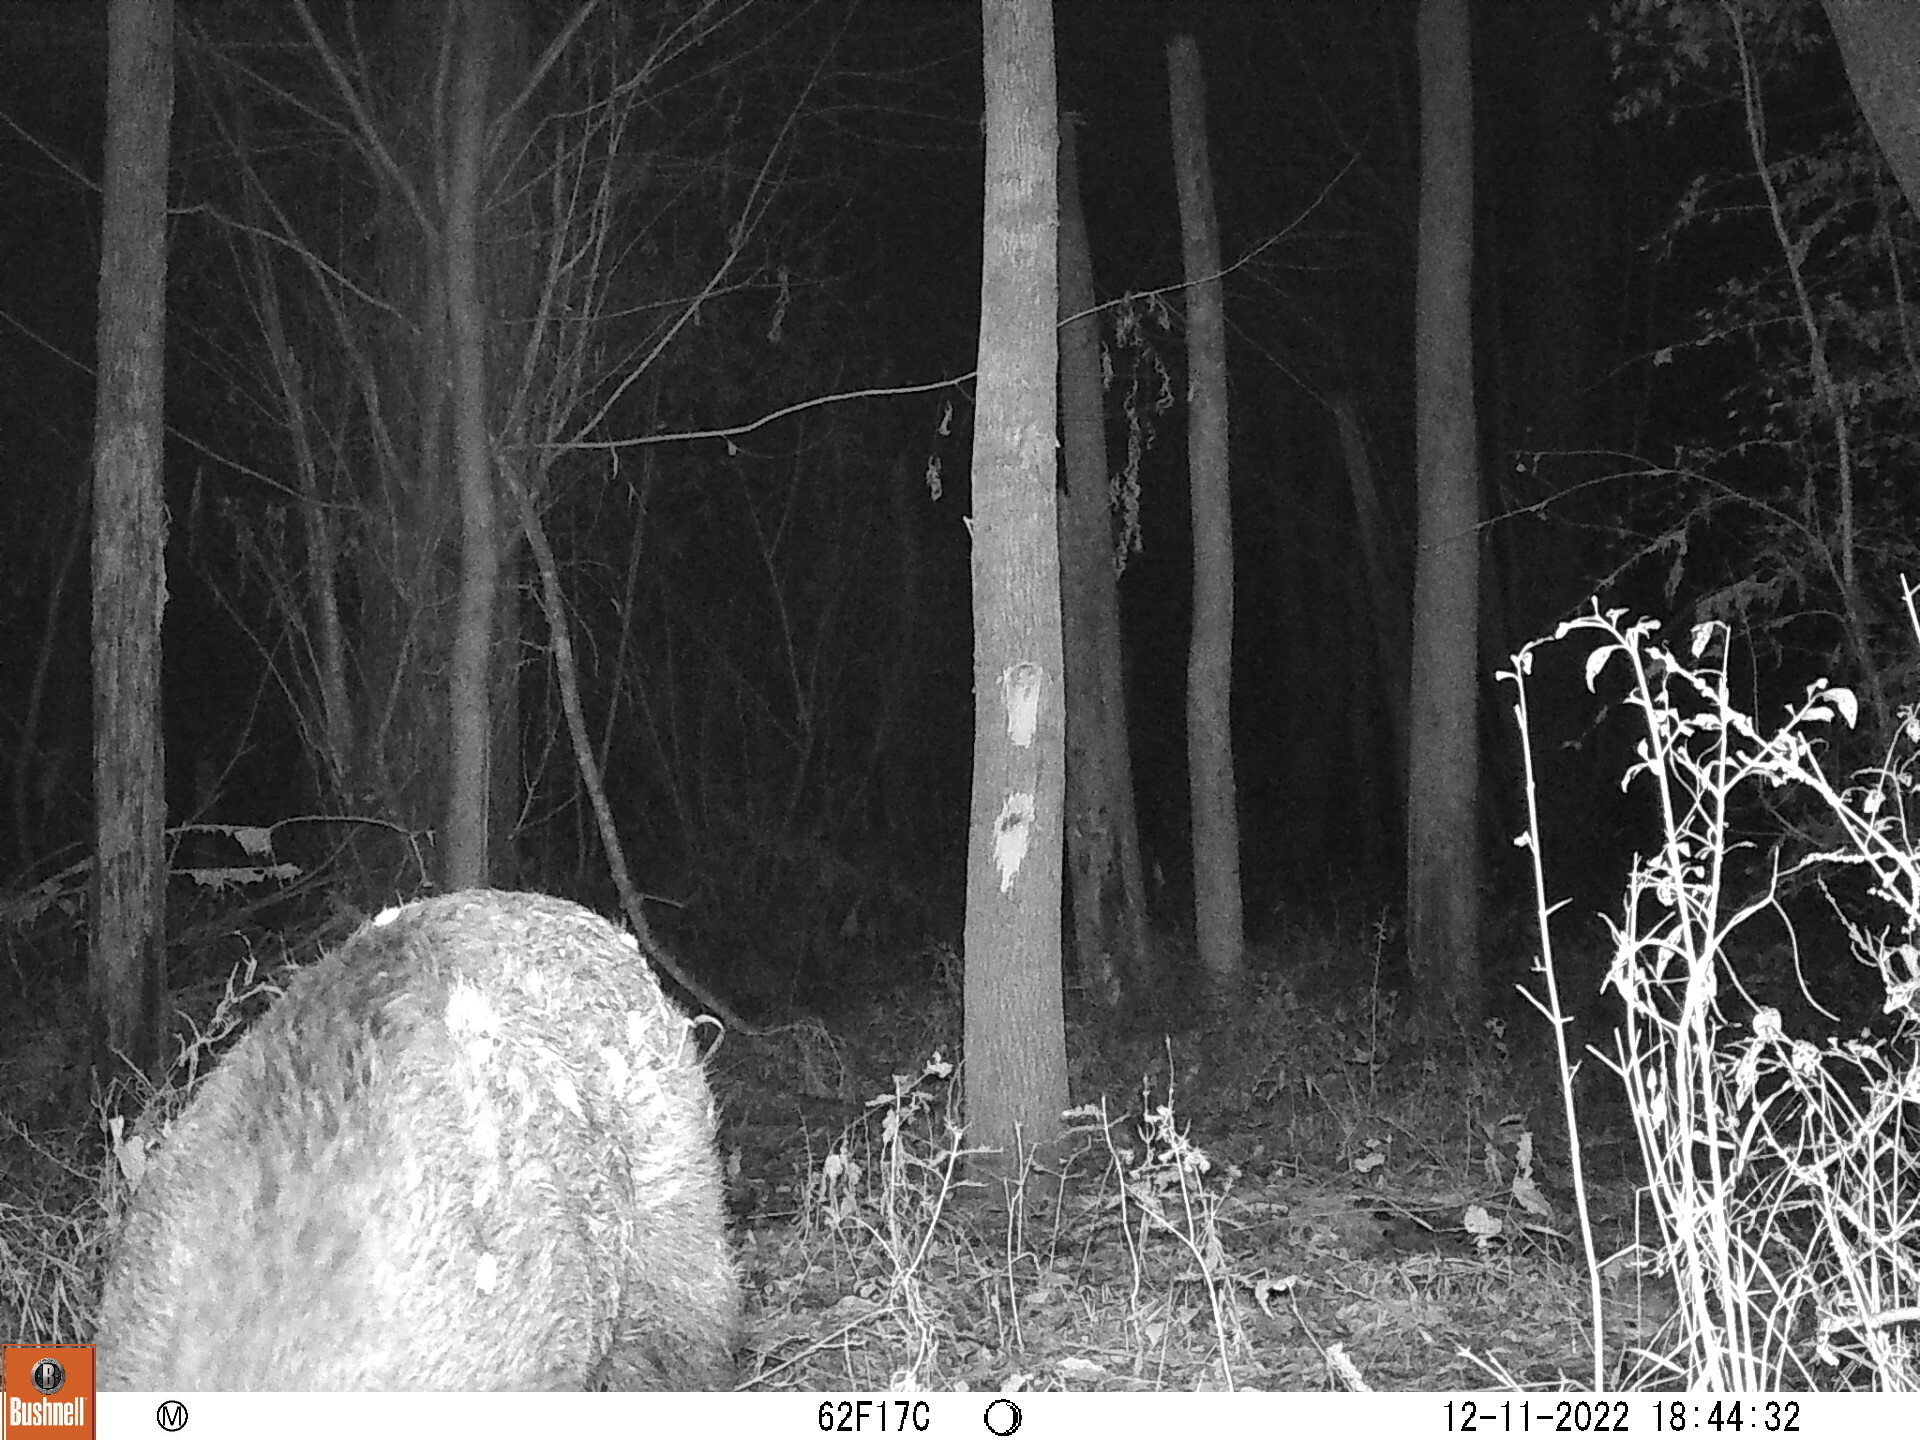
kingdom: Animalia
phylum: Chordata
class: Mammalia
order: Artiodactyla
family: Suidae
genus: Sus
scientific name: Sus scrofa
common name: Wild boar
